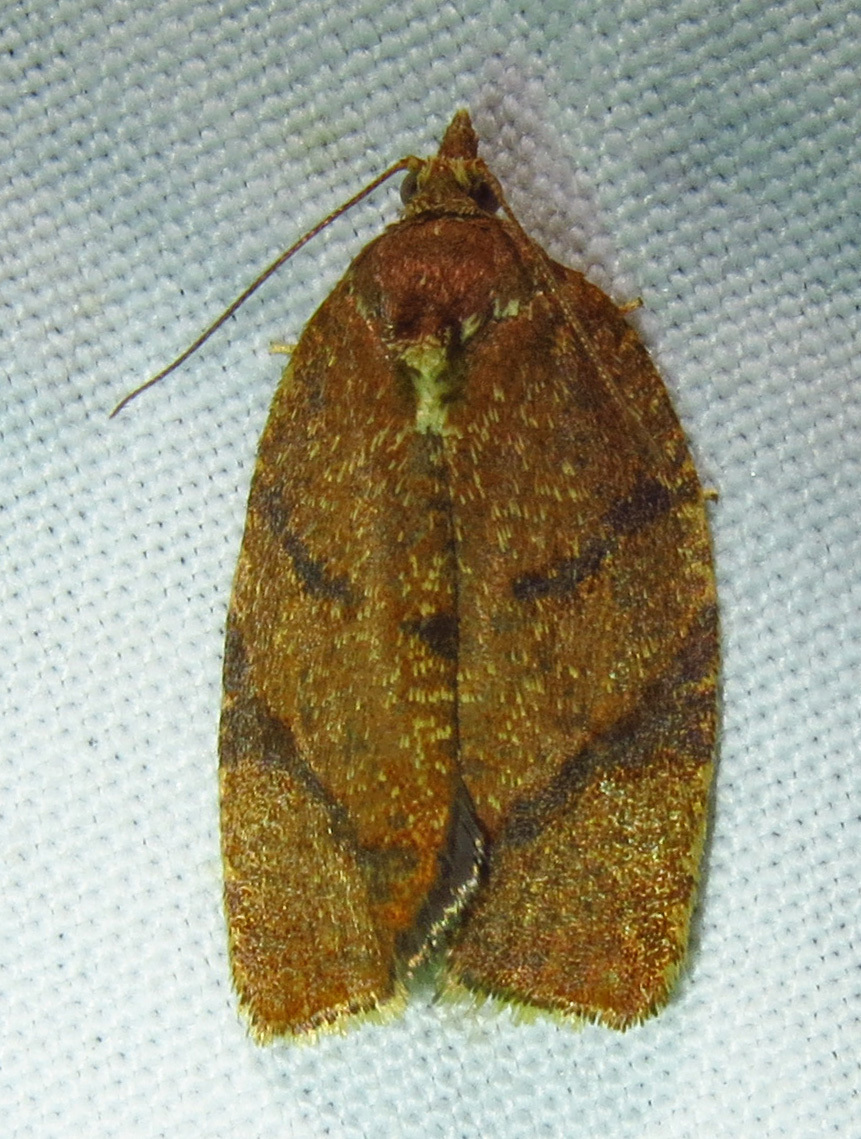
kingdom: Animalia
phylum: Arthropoda
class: Insecta
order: Lepidoptera
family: Tortricidae
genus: Argyrotaenia
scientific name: Argyrotaenia juglandana
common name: Hickory leafroller moth
